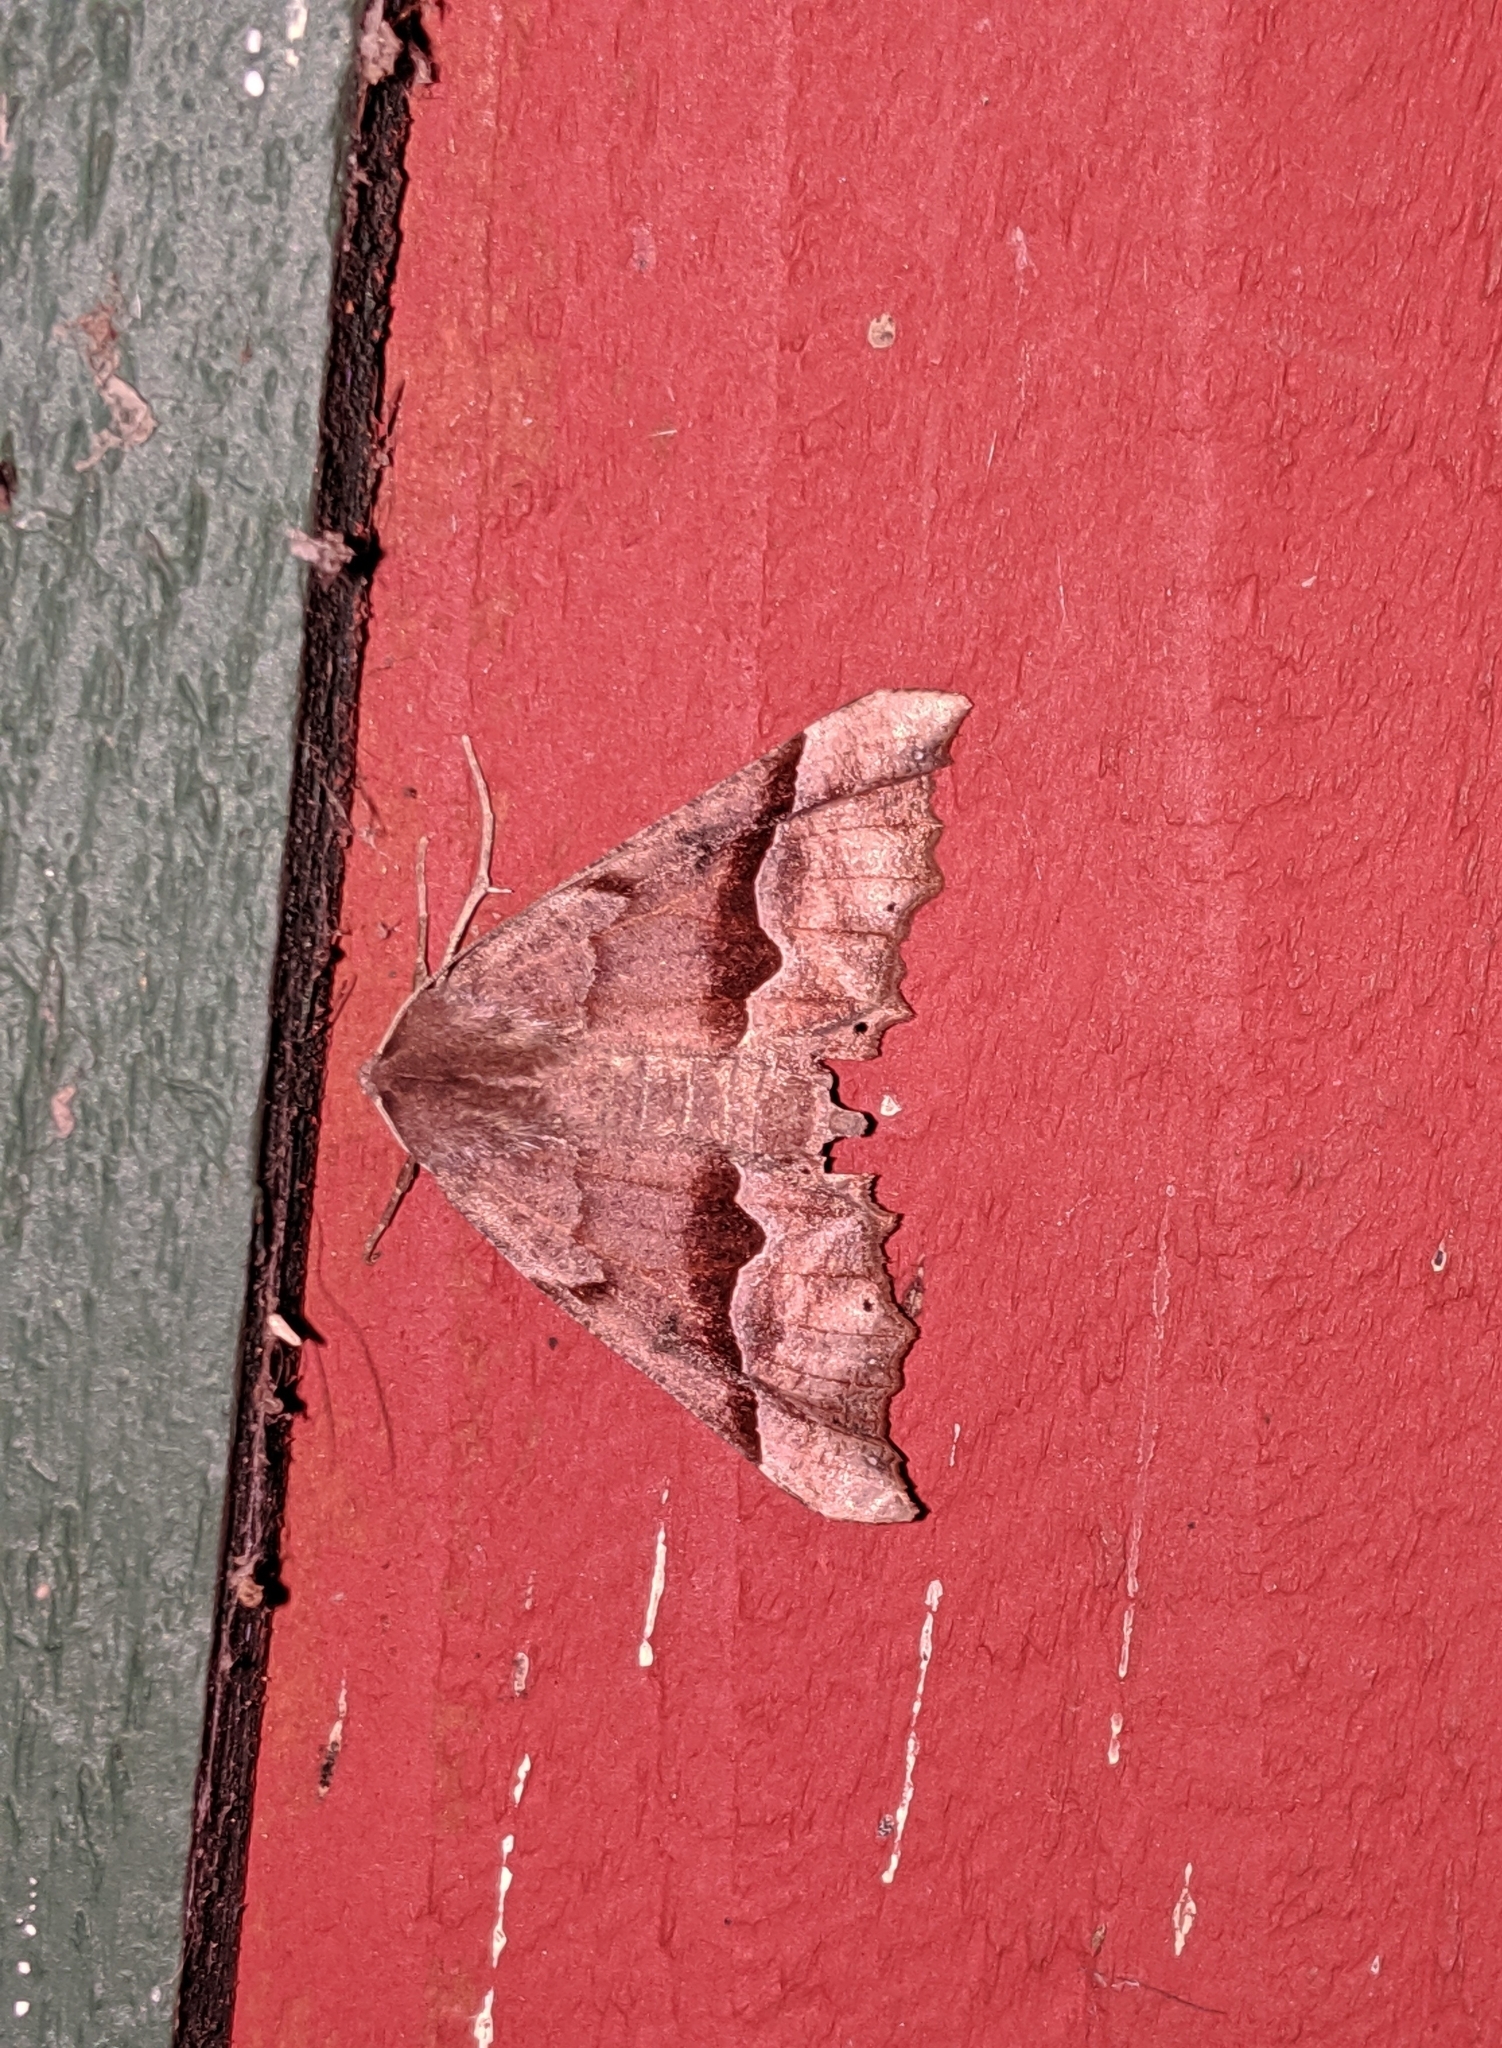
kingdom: Animalia
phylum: Arthropoda
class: Insecta
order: Lepidoptera
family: Geometridae
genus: Pero
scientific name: Pero mizon
